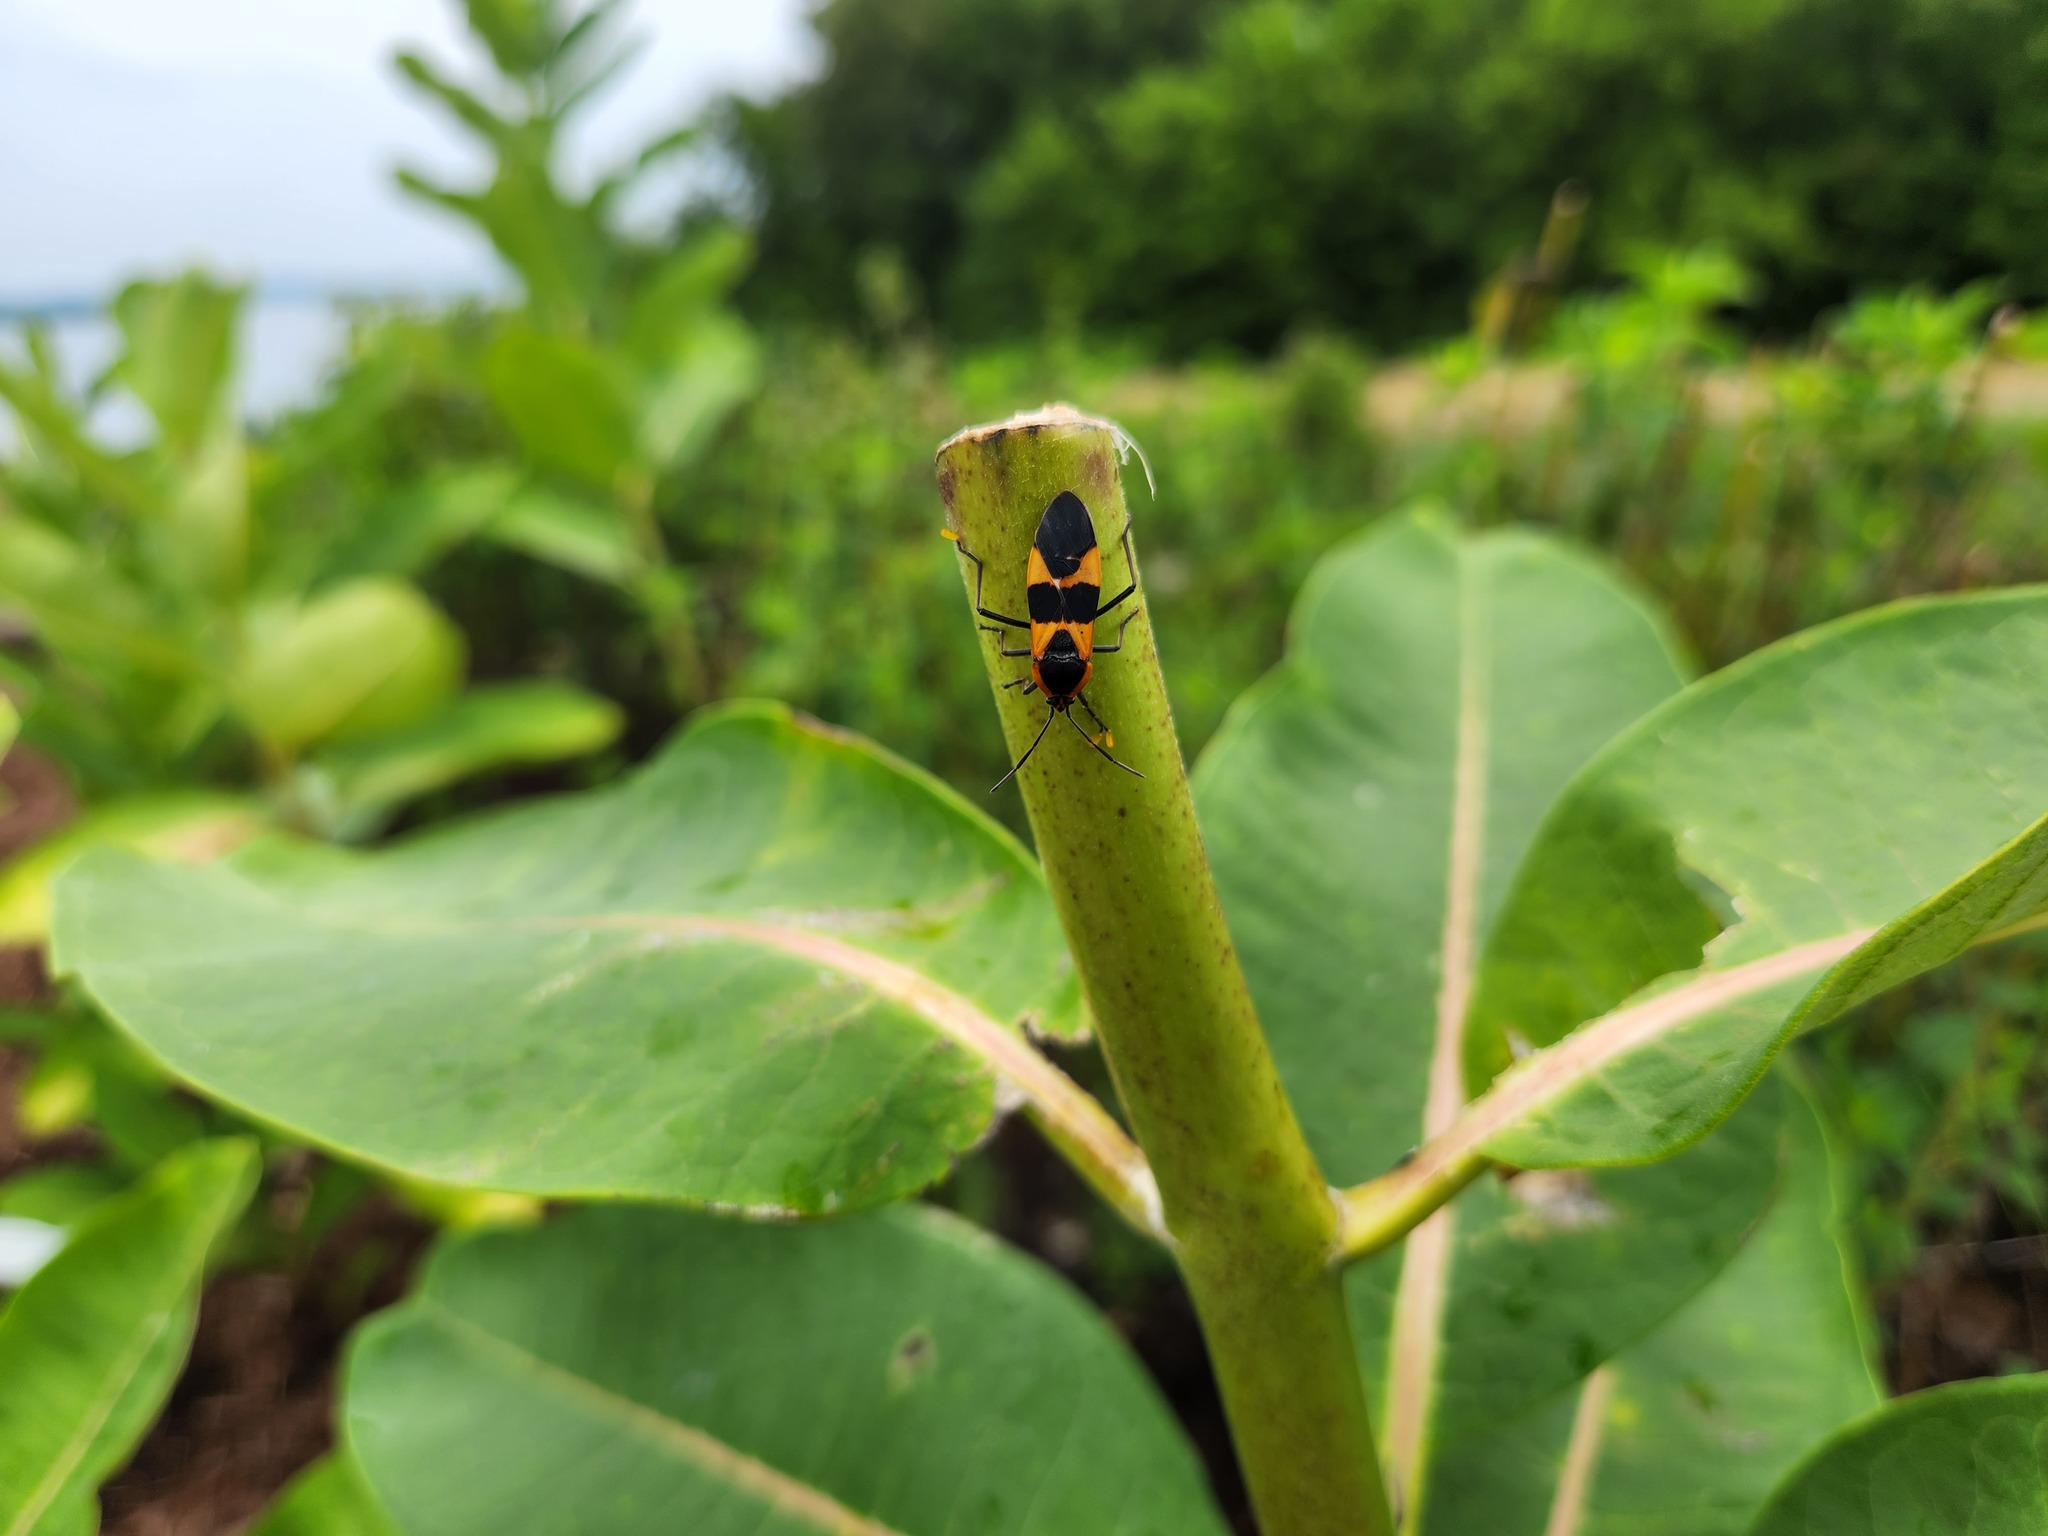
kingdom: Animalia
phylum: Arthropoda
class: Insecta
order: Hemiptera
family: Lygaeidae
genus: Oncopeltus
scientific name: Oncopeltus fasciatus
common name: Large milkweed bug
